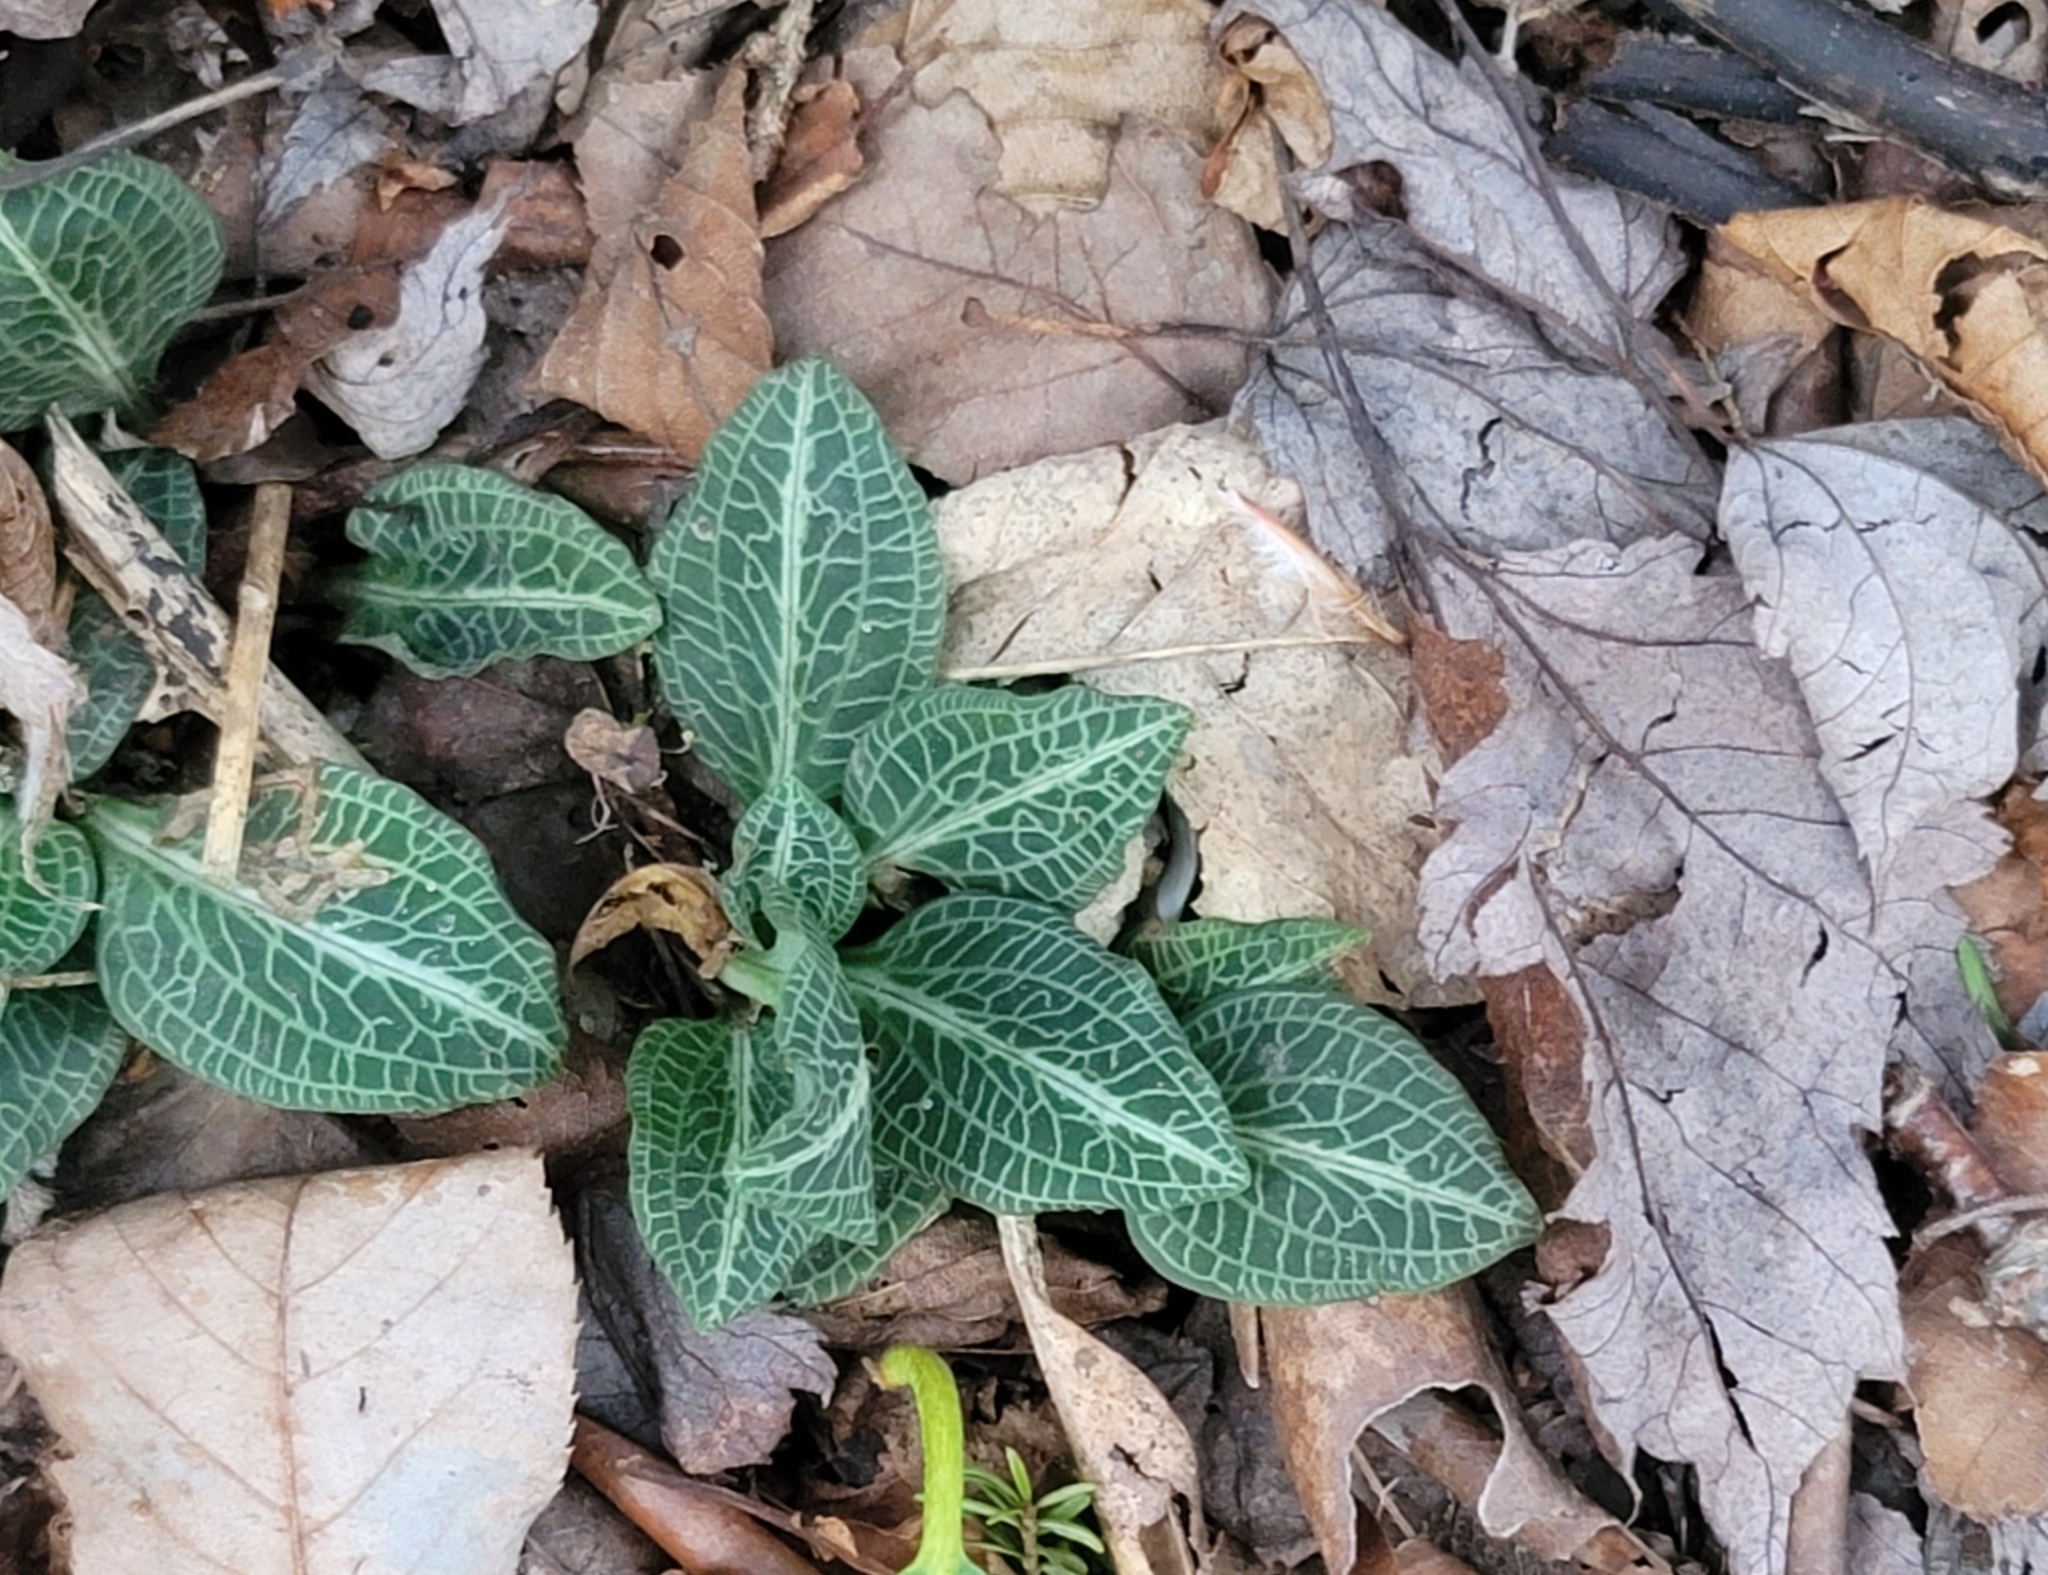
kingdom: Plantae
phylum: Tracheophyta
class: Liliopsida
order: Asparagales
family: Orchidaceae
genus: Goodyera
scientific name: Goodyera pubescens
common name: Downy rattlesnake-plantain
